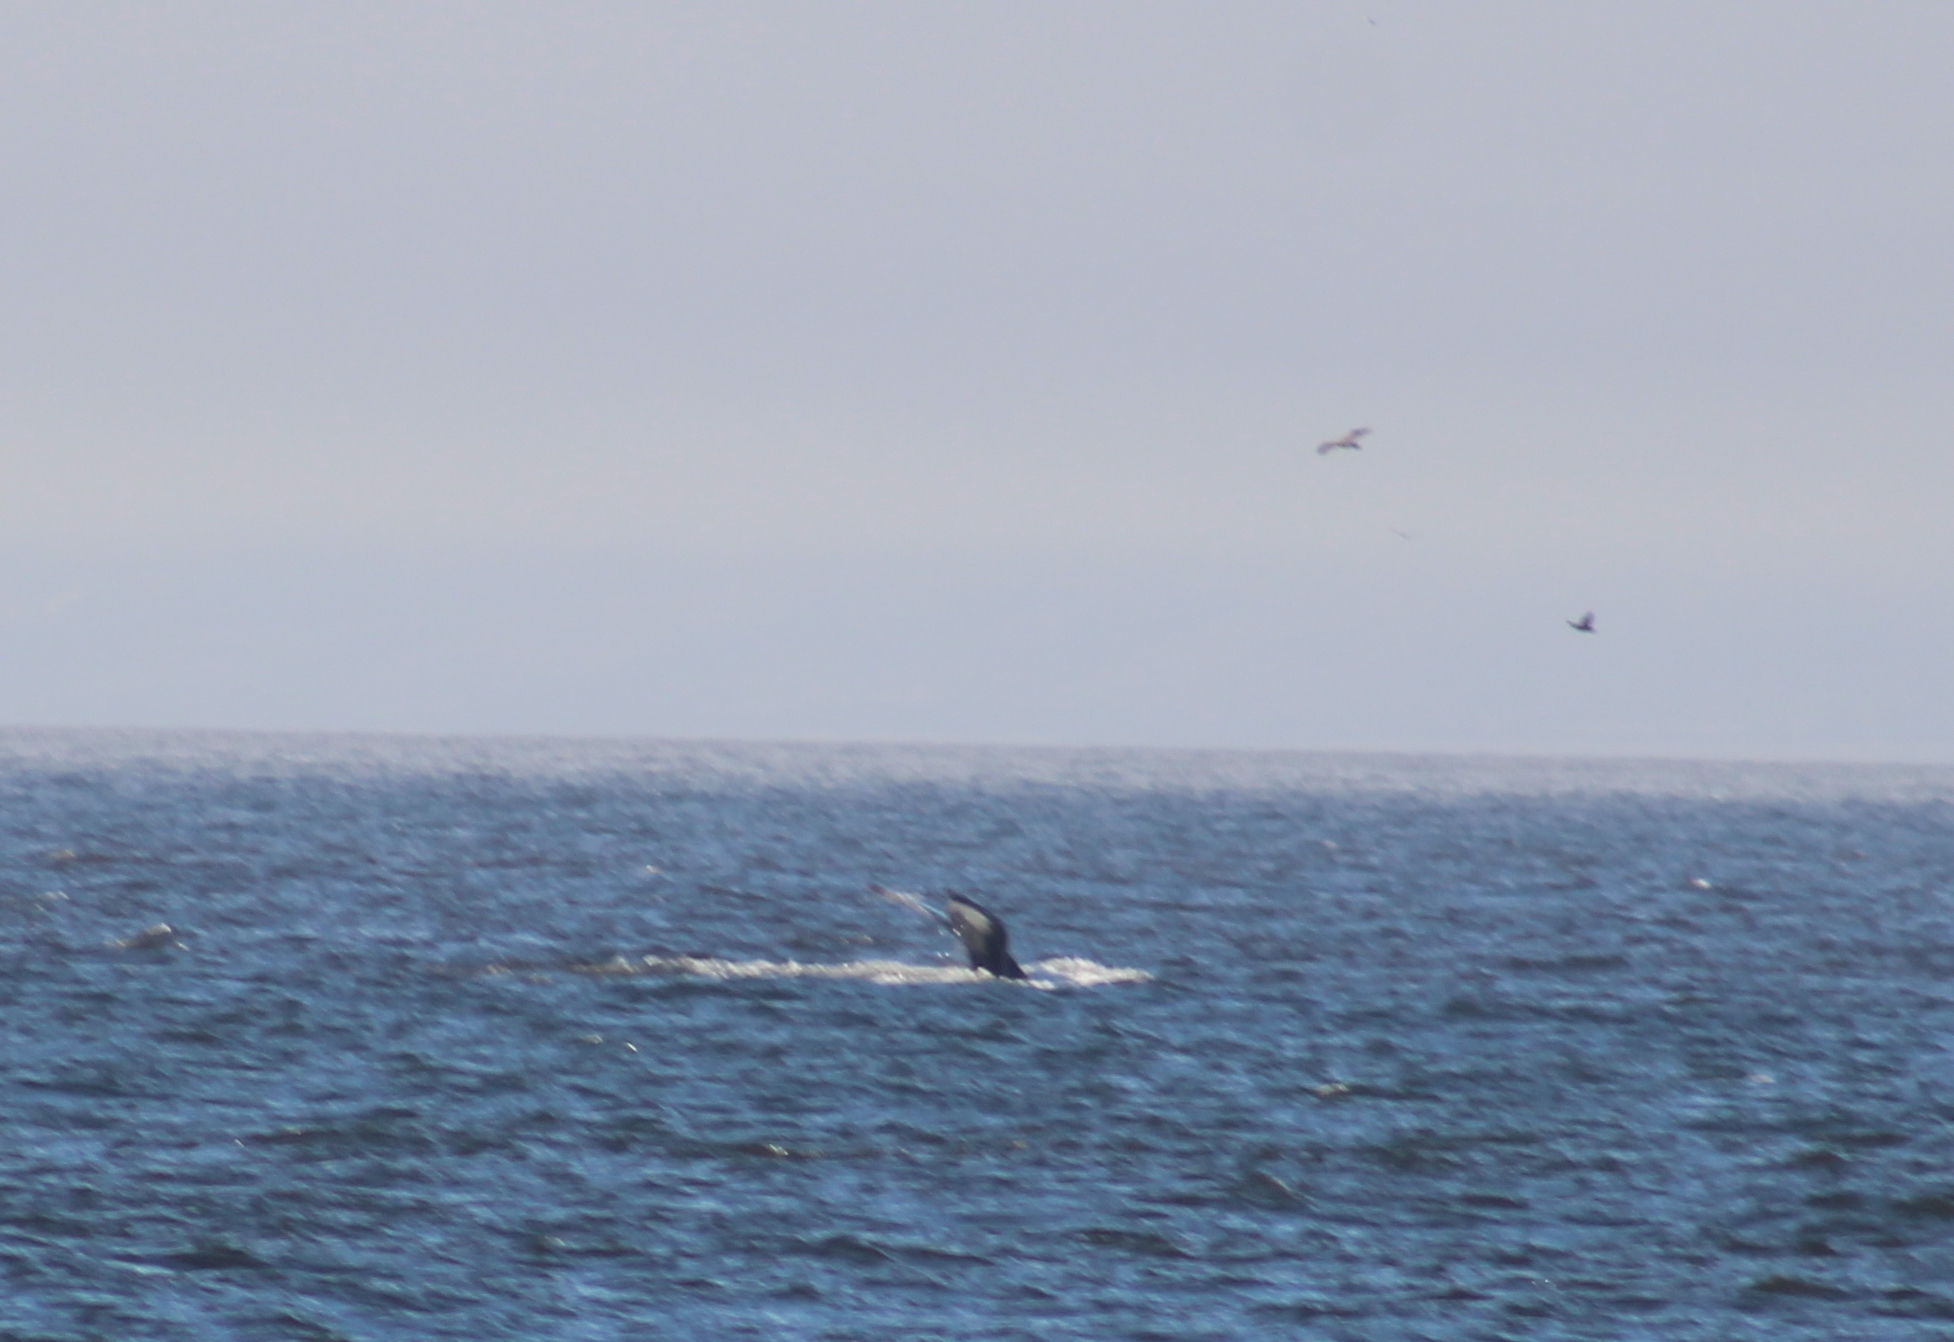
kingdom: Animalia
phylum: Chordata
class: Mammalia
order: Cetacea
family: Balaenopteridae
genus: Megaptera
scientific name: Megaptera novaeangliae
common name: Humpback whale
